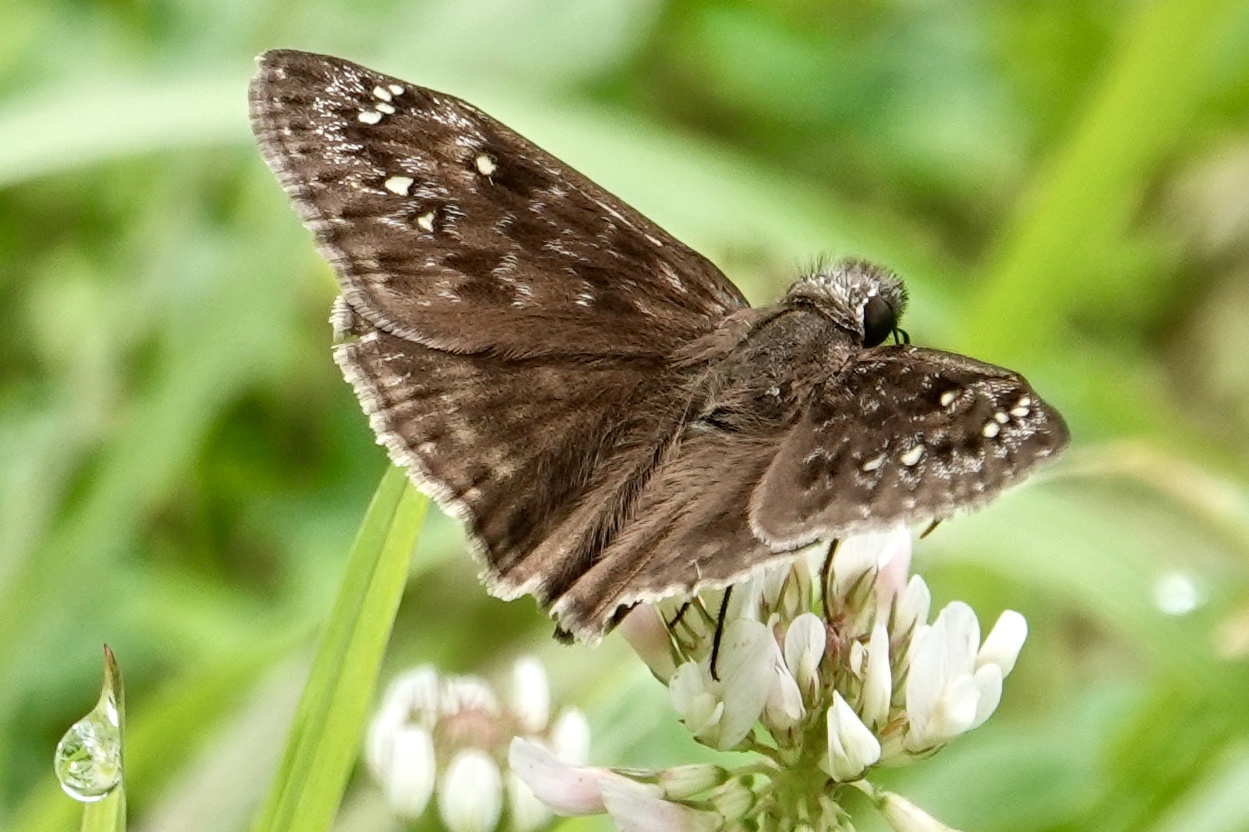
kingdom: Animalia
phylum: Arthropoda
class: Insecta
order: Lepidoptera
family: Hesperiidae
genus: Erynnis
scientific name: Erynnis horatius
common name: Horace's duskywing
